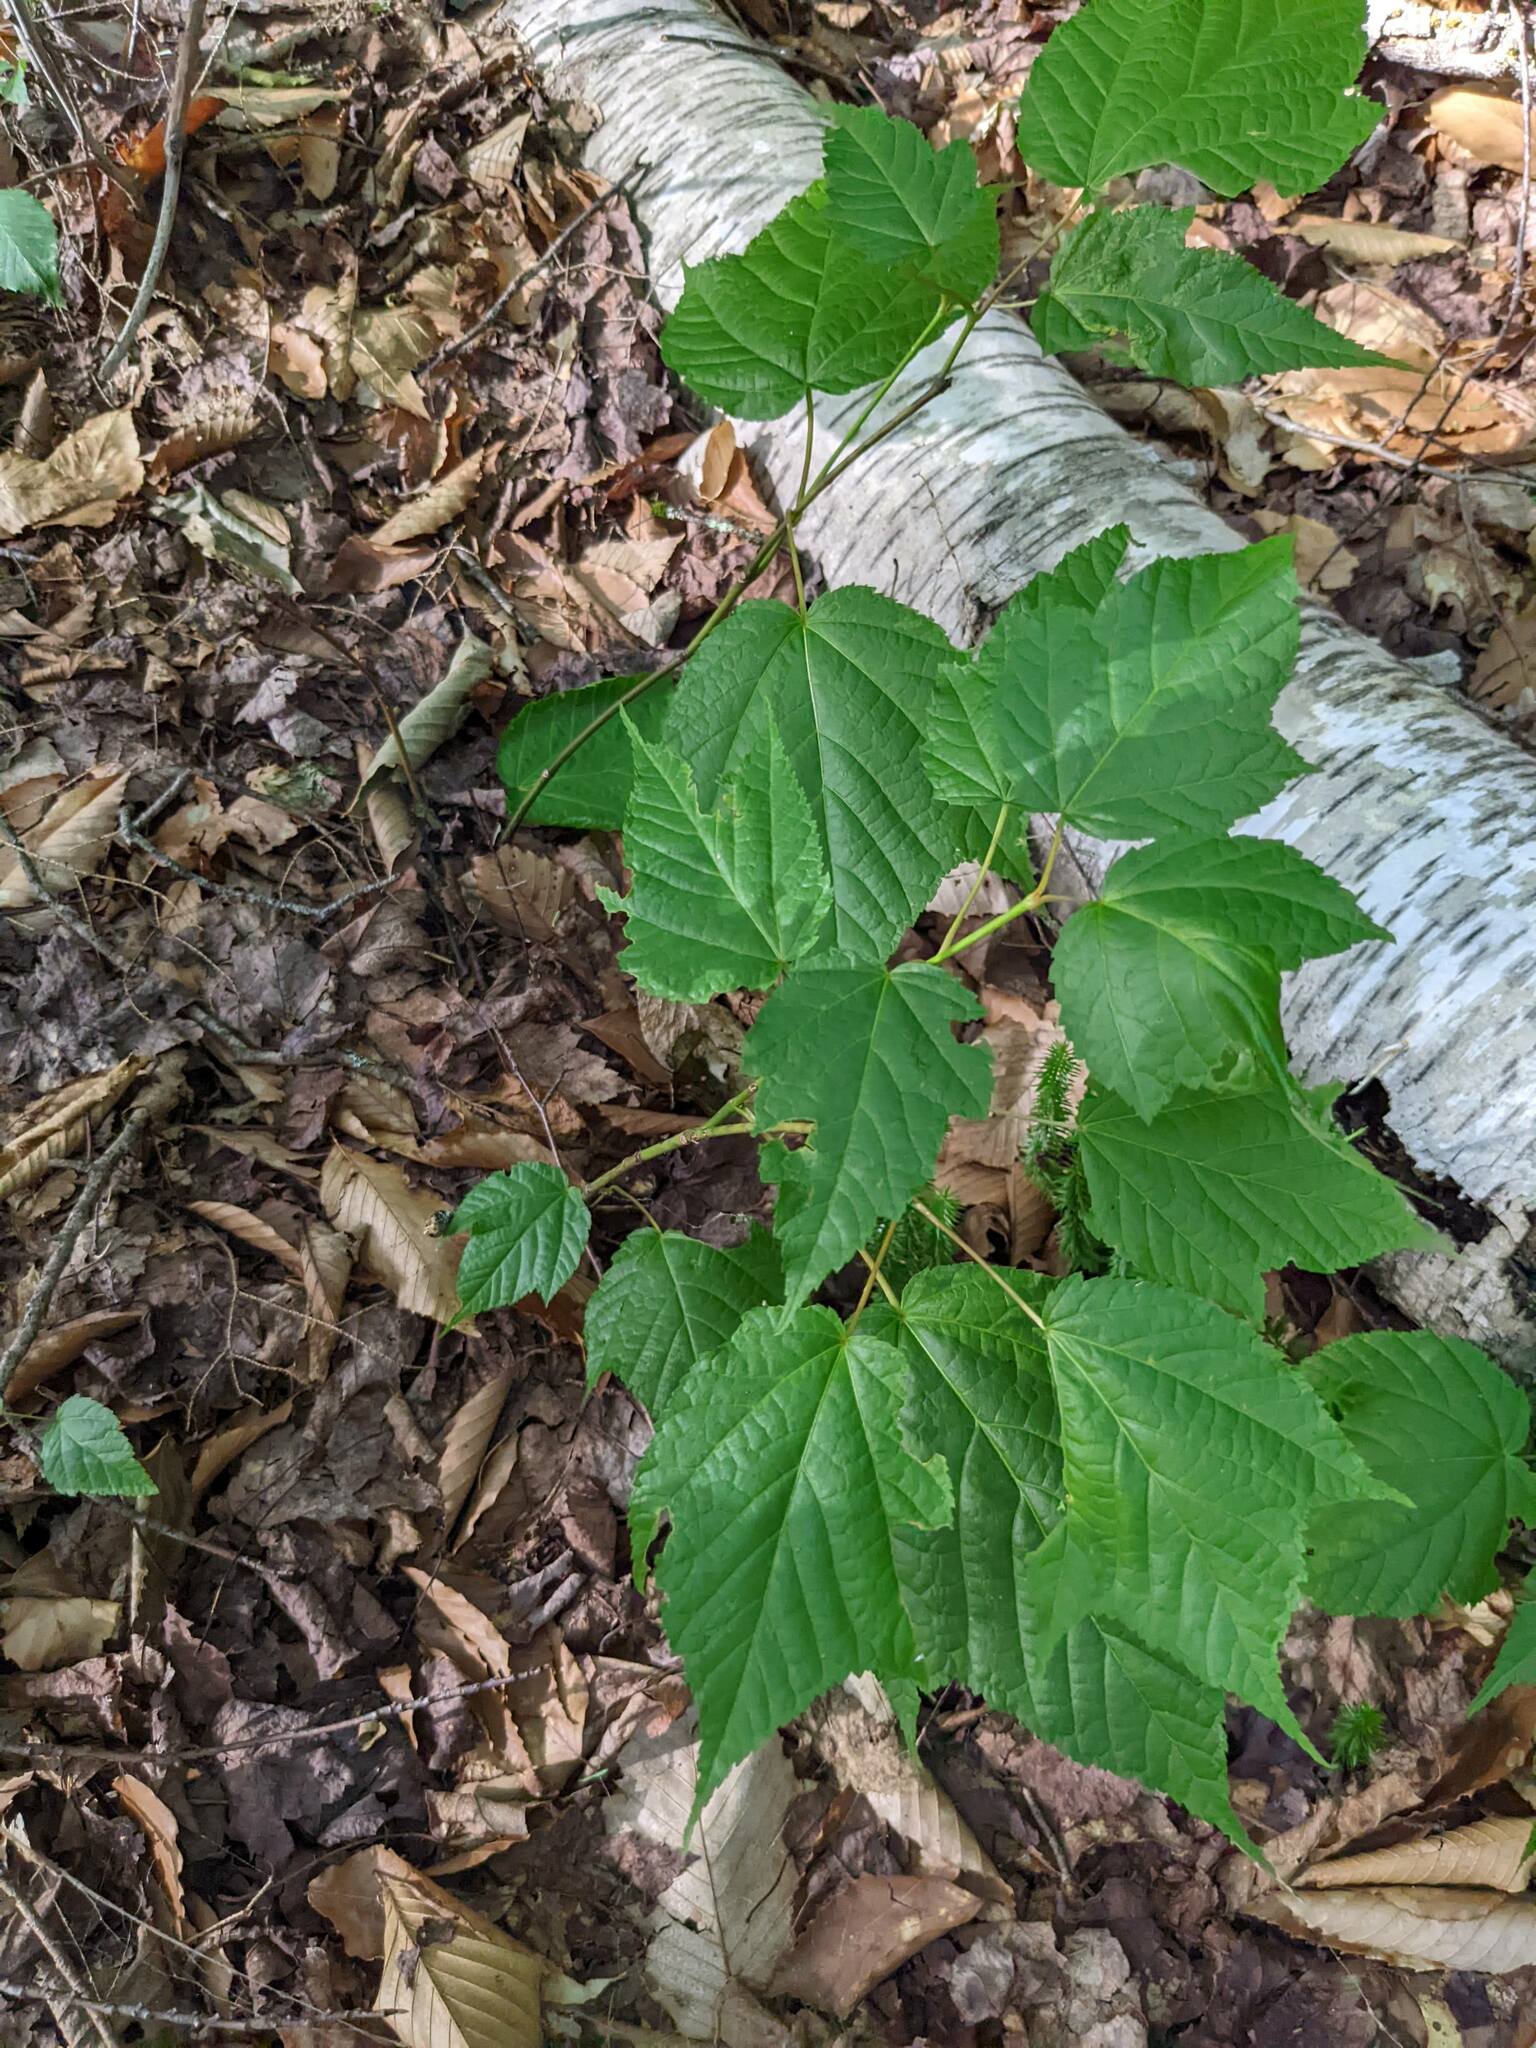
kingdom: Plantae
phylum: Tracheophyta
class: Magnoliopsida
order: Sapindales
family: Sapindaceae
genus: Acer
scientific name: Acer pensylvanicum
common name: Moosewood
